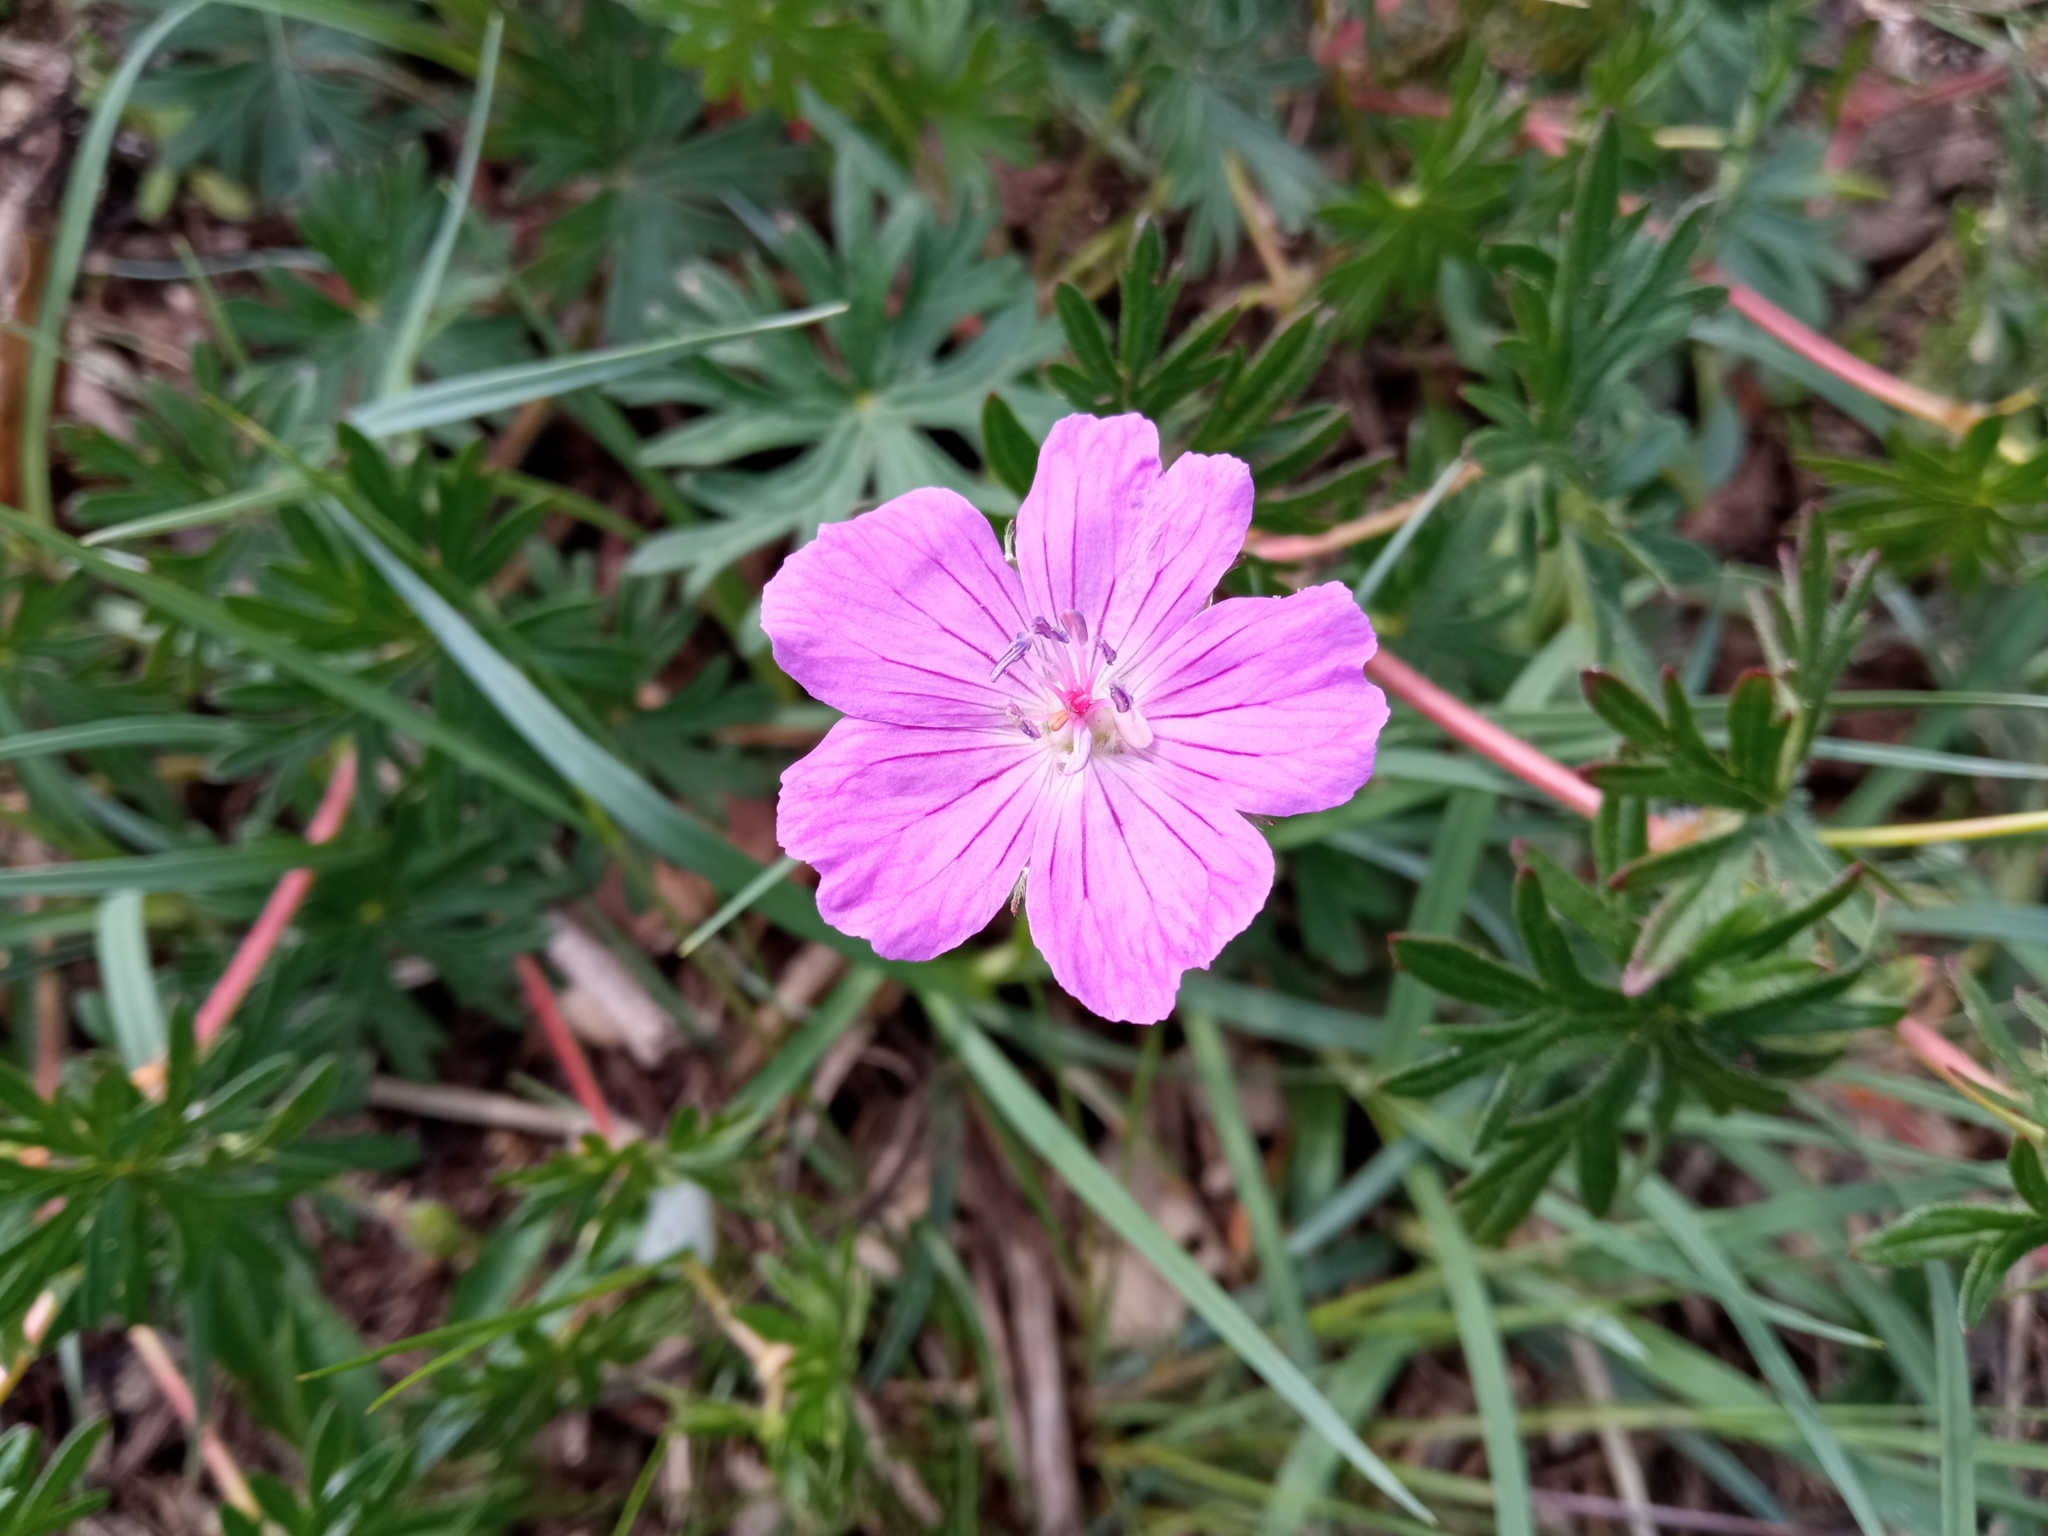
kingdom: Plantae
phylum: Tracheophyta
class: Magnoliopsida
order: Geraniales
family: Geraniaceae
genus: Geranium
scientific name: Geranium sanguineum
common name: Bloody crane's-bill
